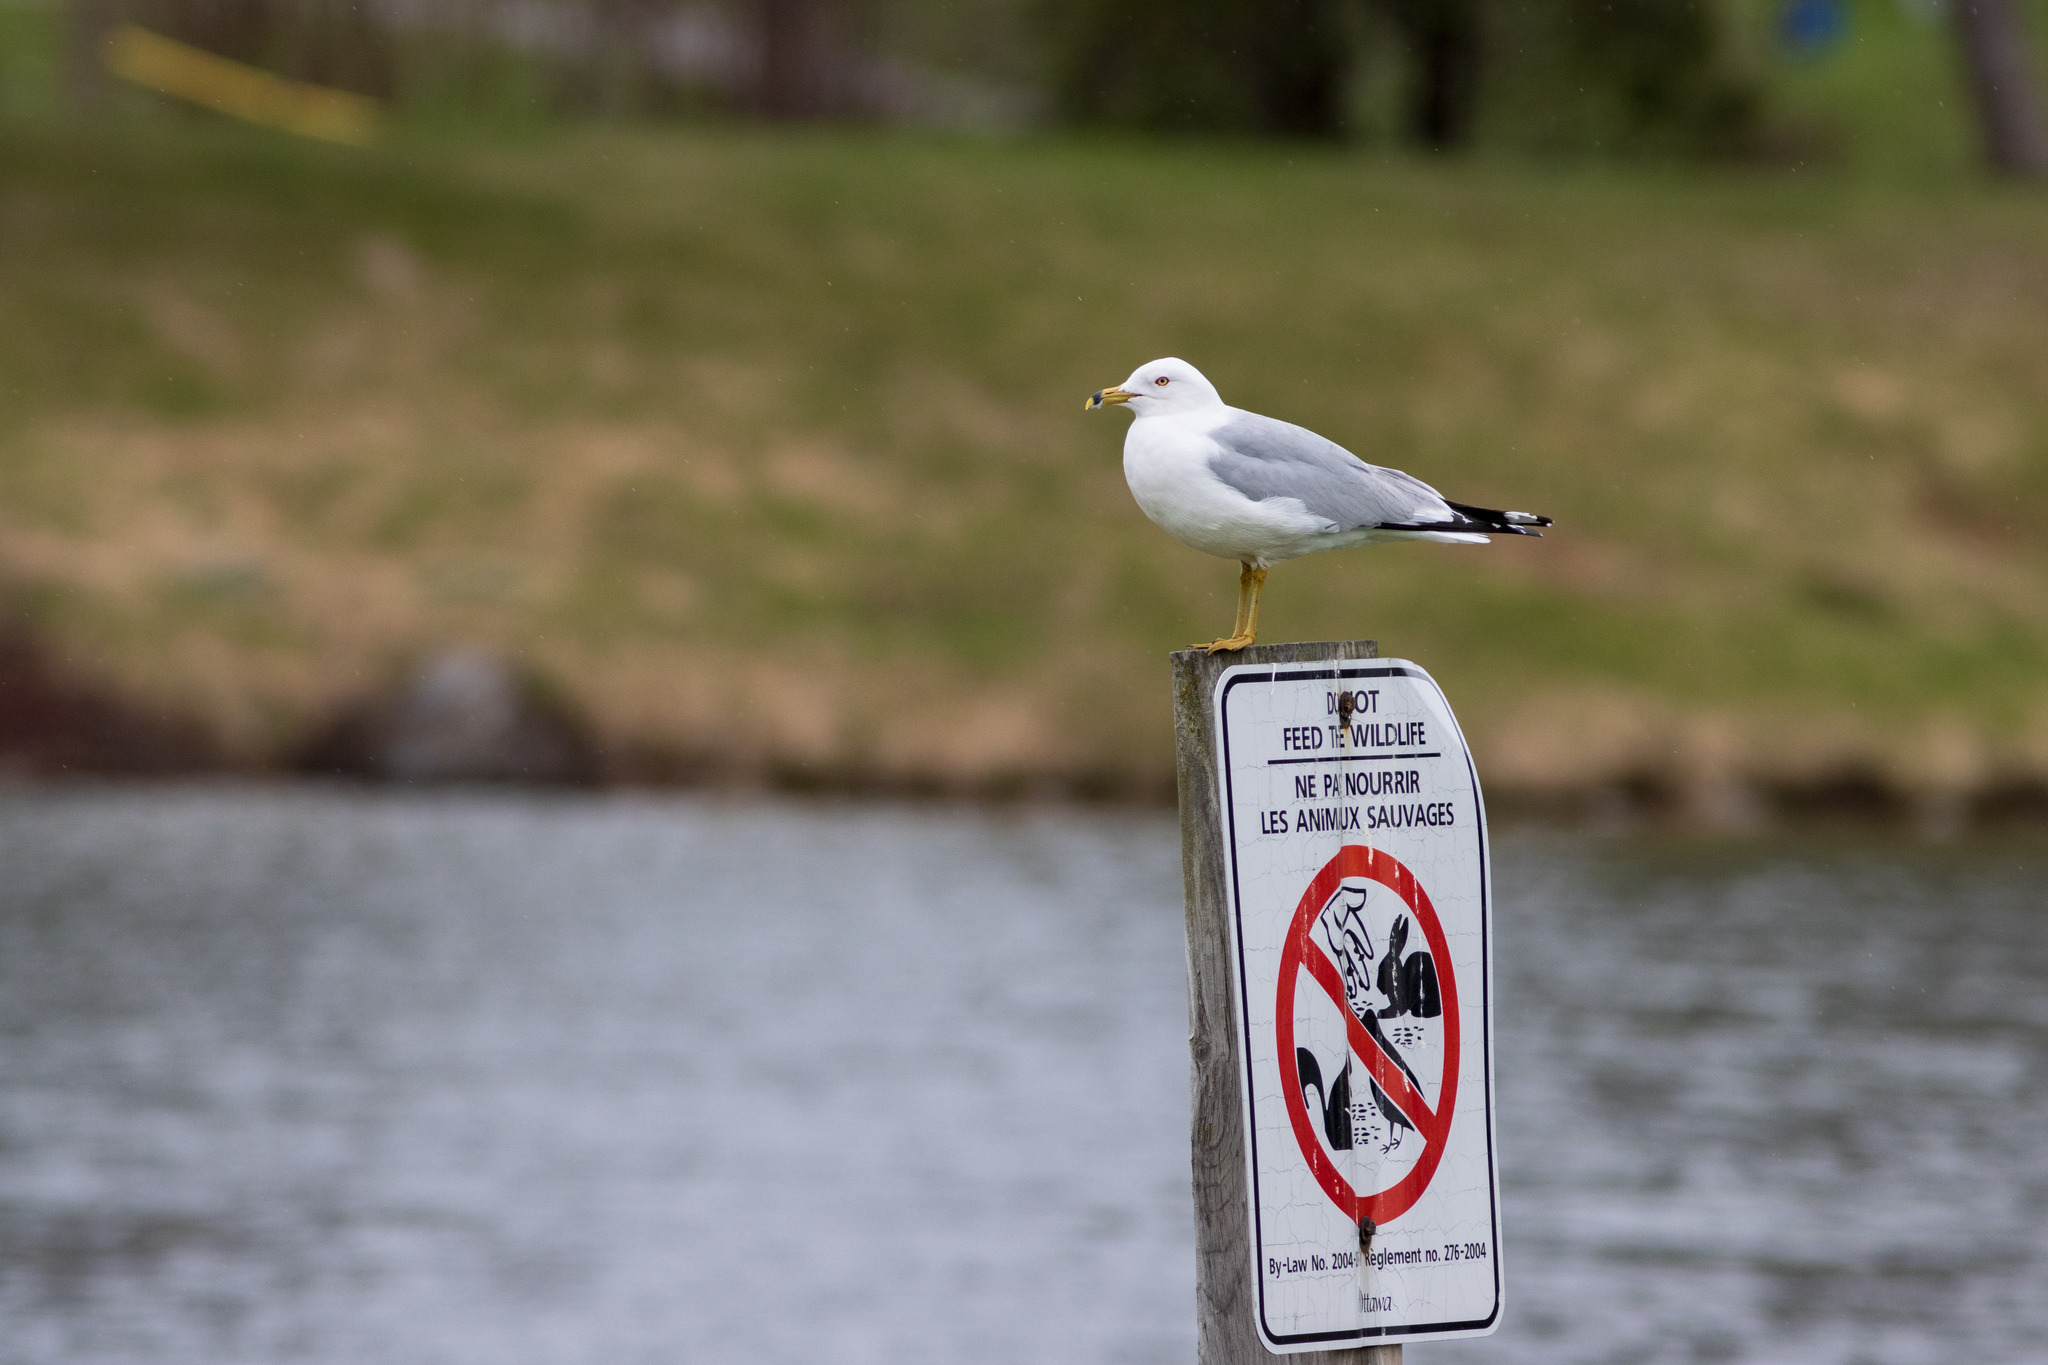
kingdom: Animalia
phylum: Chordata
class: Aves
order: Charadriiformes
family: Laridae
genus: Larus
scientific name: Larus delawarensis
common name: Ring-billed gull
